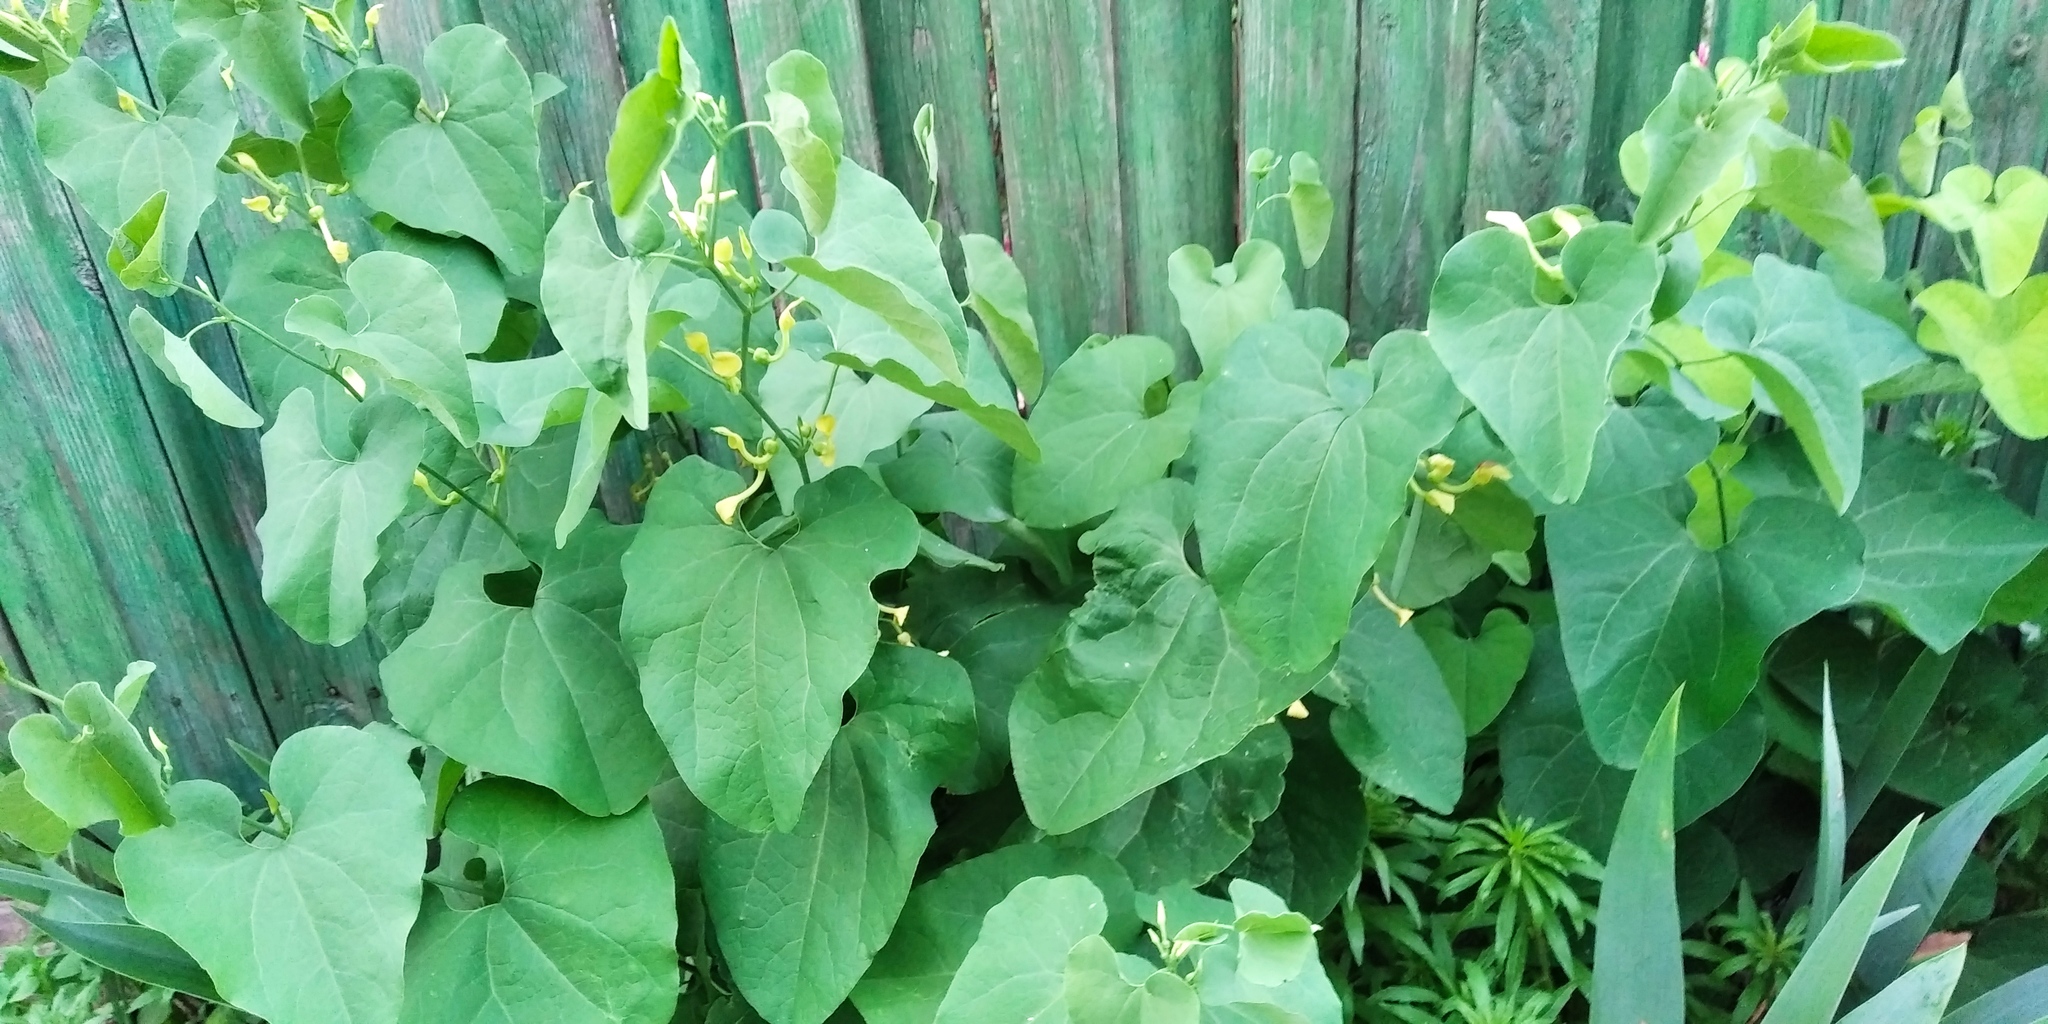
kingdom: Plantae
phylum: Tracheophyta
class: Magnoliopsida
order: Piperales
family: Aristolochiaceae
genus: Aristolochia
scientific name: Aristolochia clematitis
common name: Birthwort
